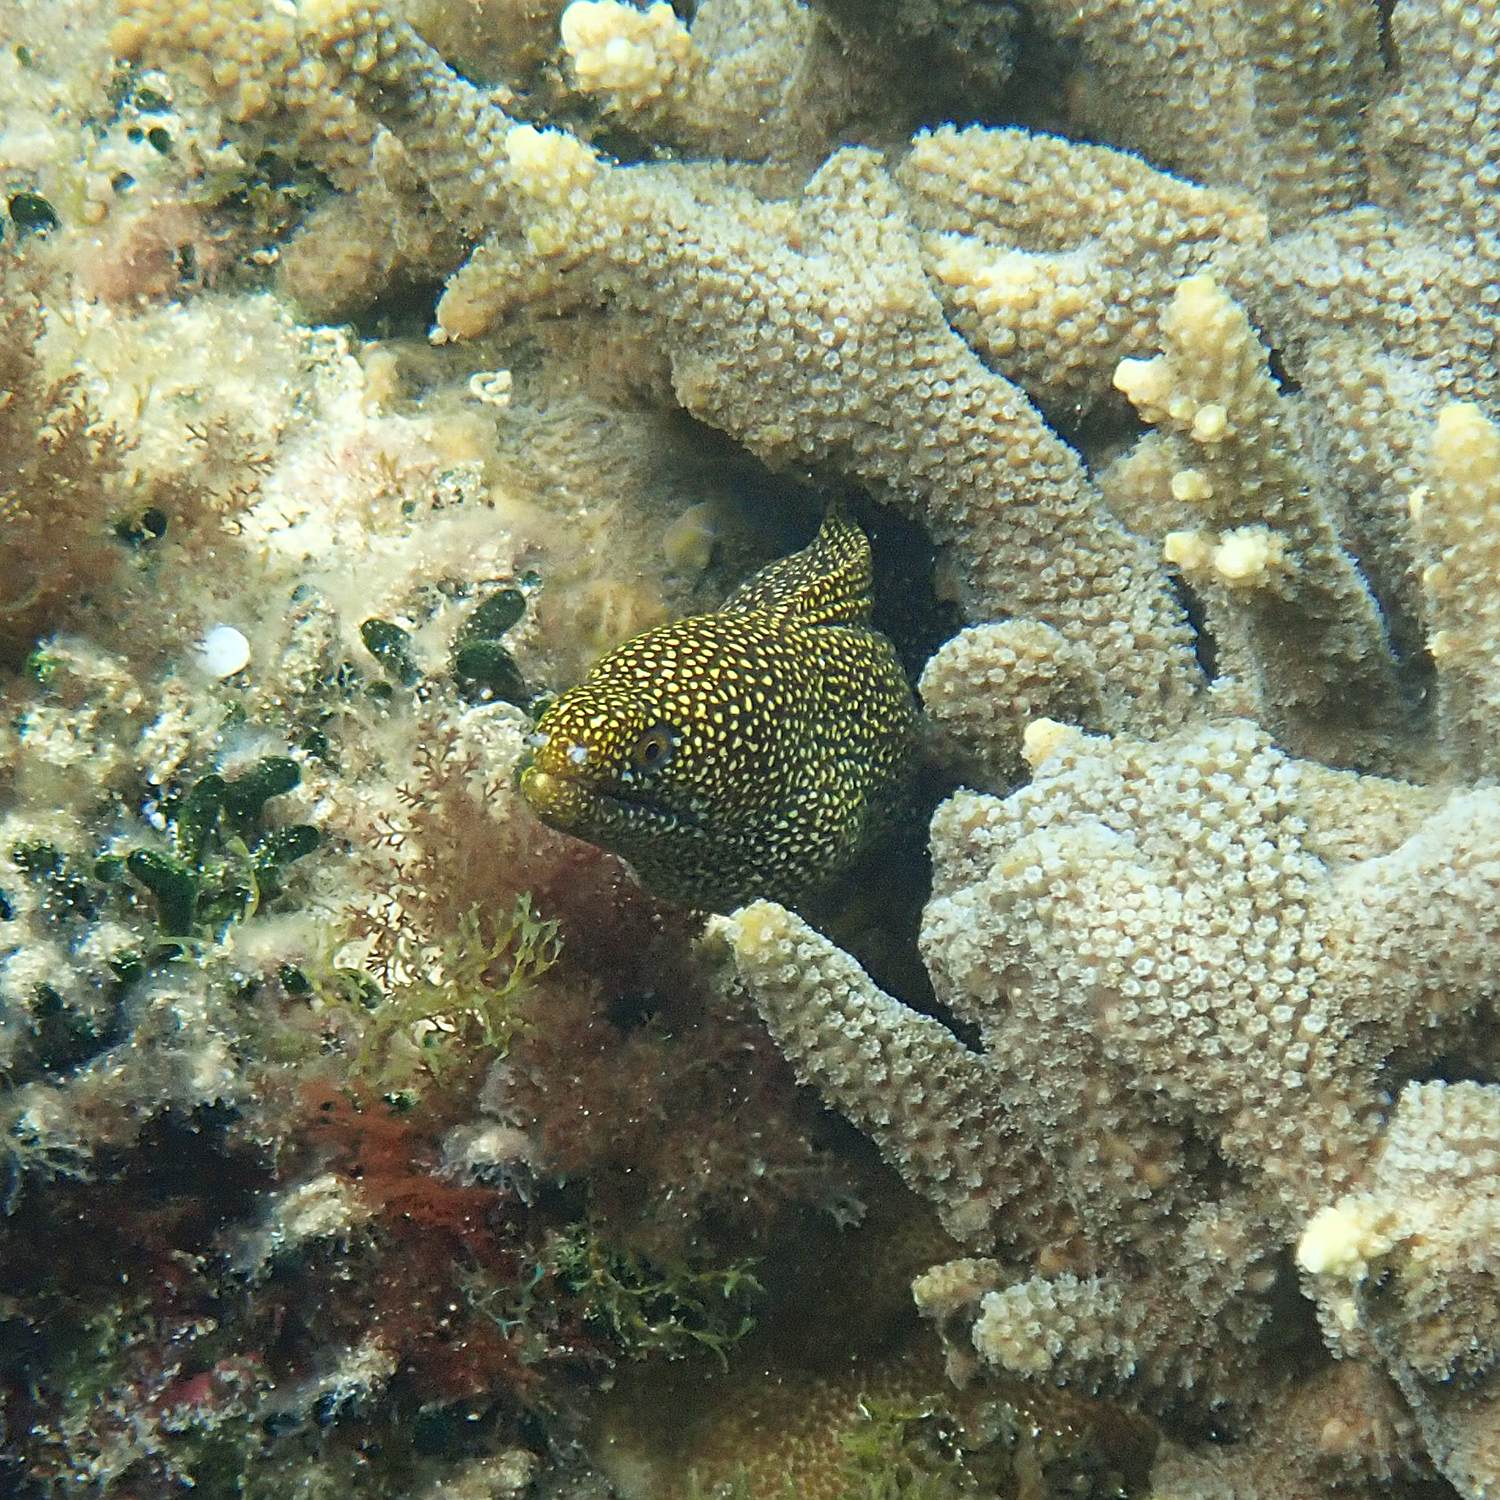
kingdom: Animalia
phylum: Chordata
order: Anguilliformes
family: Muraenidae
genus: Gymnothorax
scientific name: Gymnothorax eurostus
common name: Stout moray
